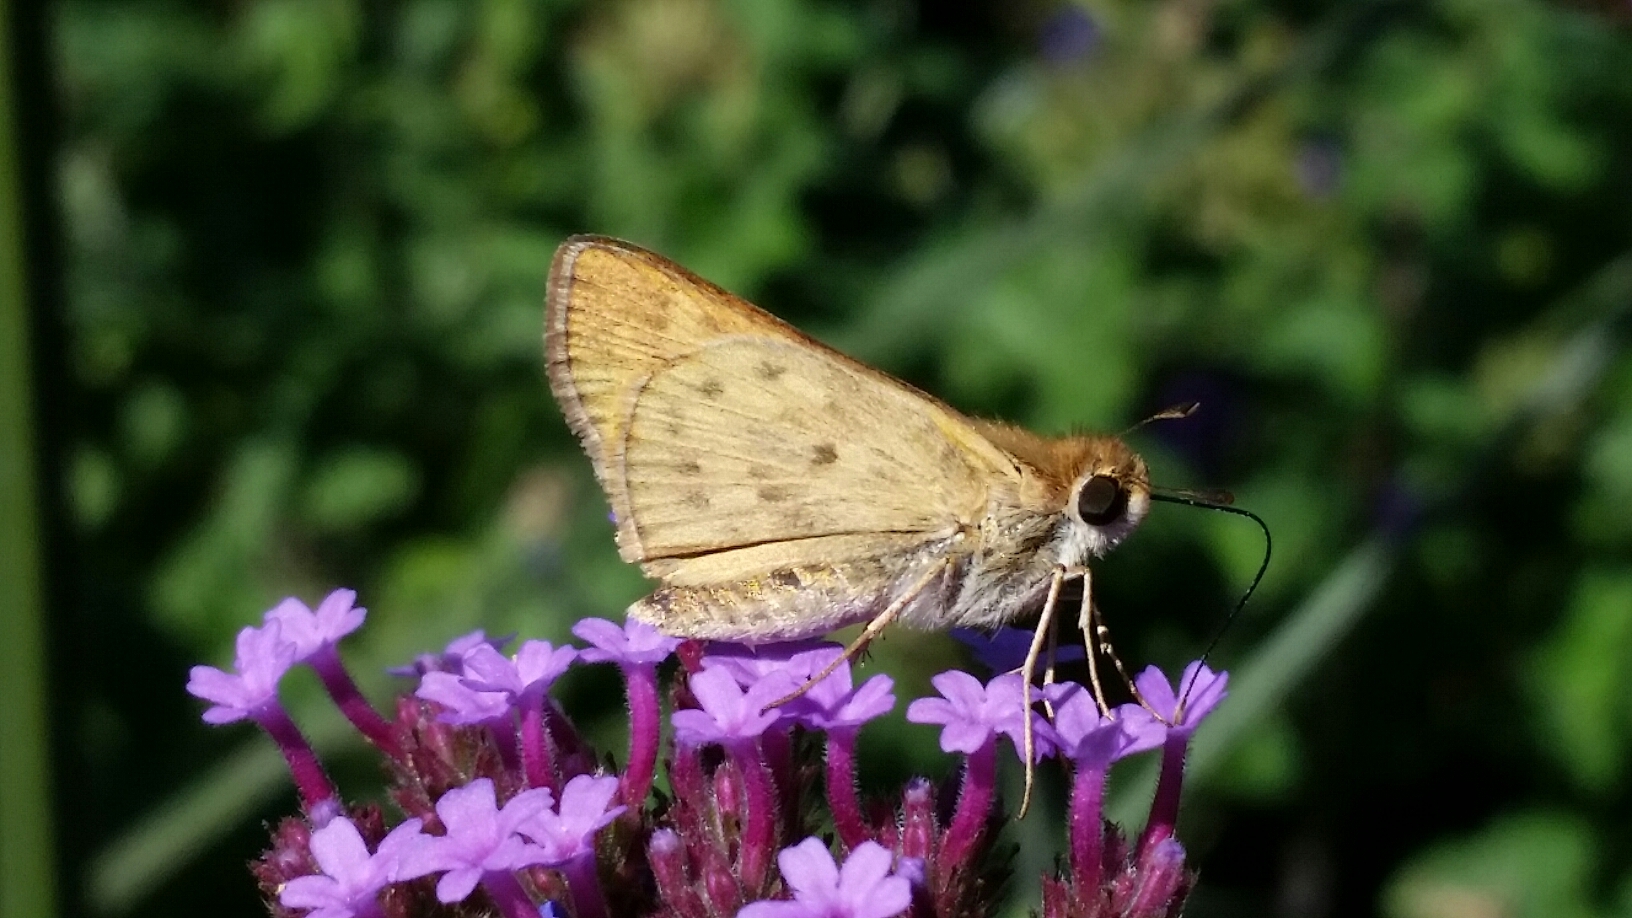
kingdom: Animalia
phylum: Arthropoda
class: Insecta
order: Lepidoptera
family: Hesperiidae
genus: Hylephila
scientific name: Hylephila phyleus
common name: Fiery skipper
